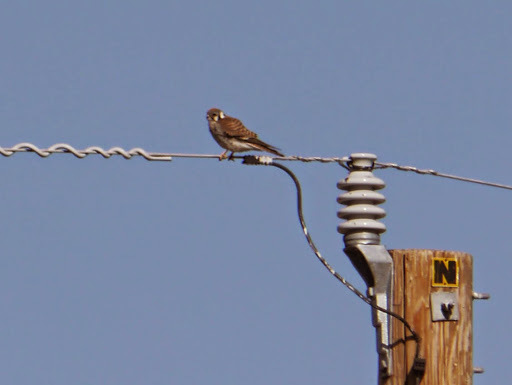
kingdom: Animalia
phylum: Chordata
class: Aves
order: Falconiformes
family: Falconidae
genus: Falco
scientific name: Falco sparverius
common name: American kestrel
